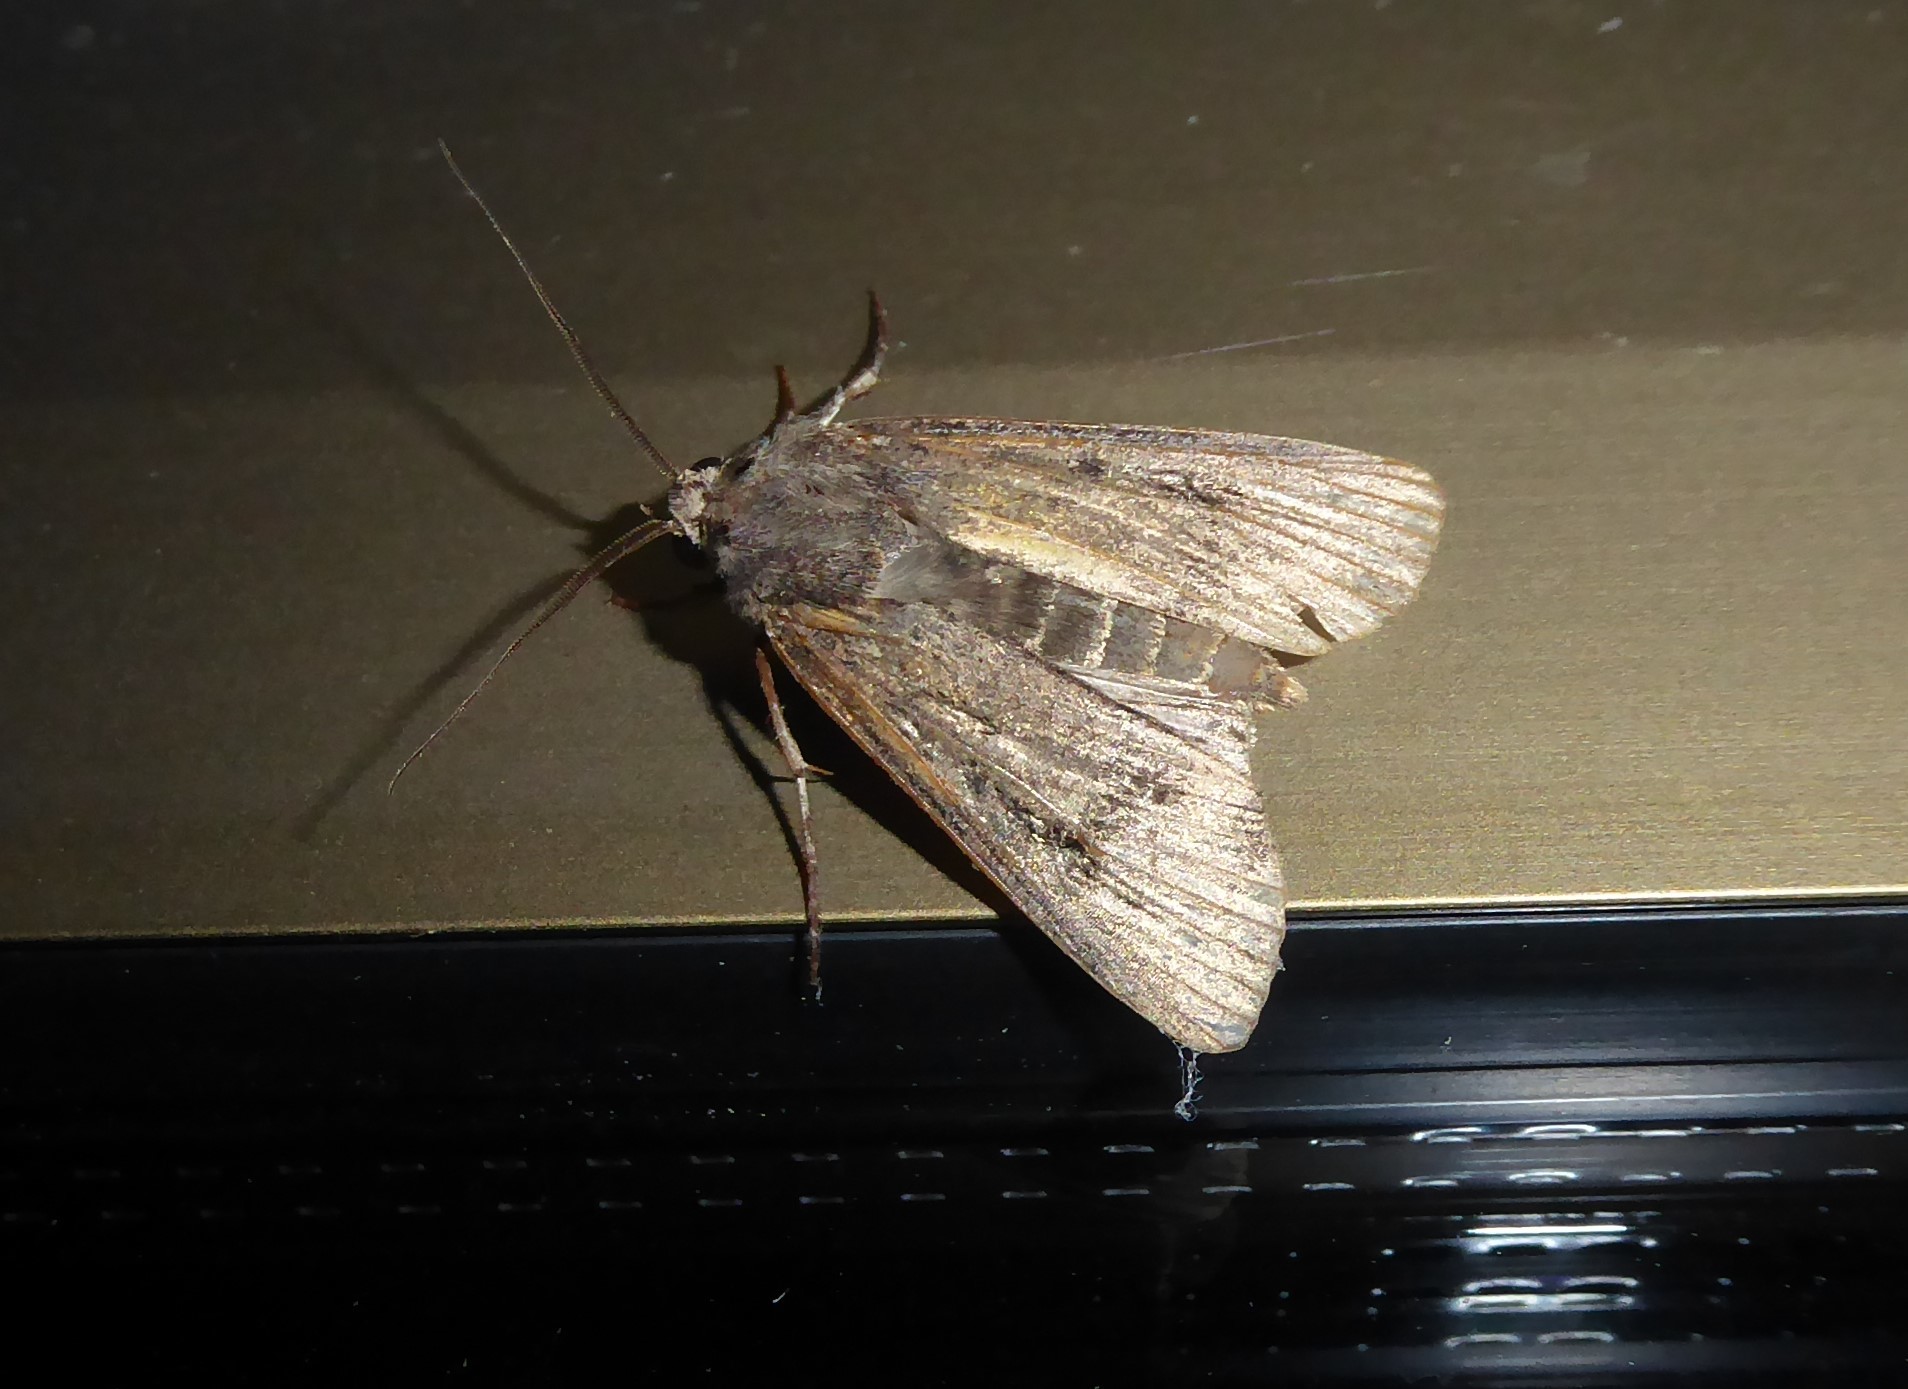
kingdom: Animalia
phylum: Arthropoda
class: Insecta
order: Lepidoptera
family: Noctuidae
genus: Agrotis
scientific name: Agrotis ipsilon
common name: Dark sword-grass
